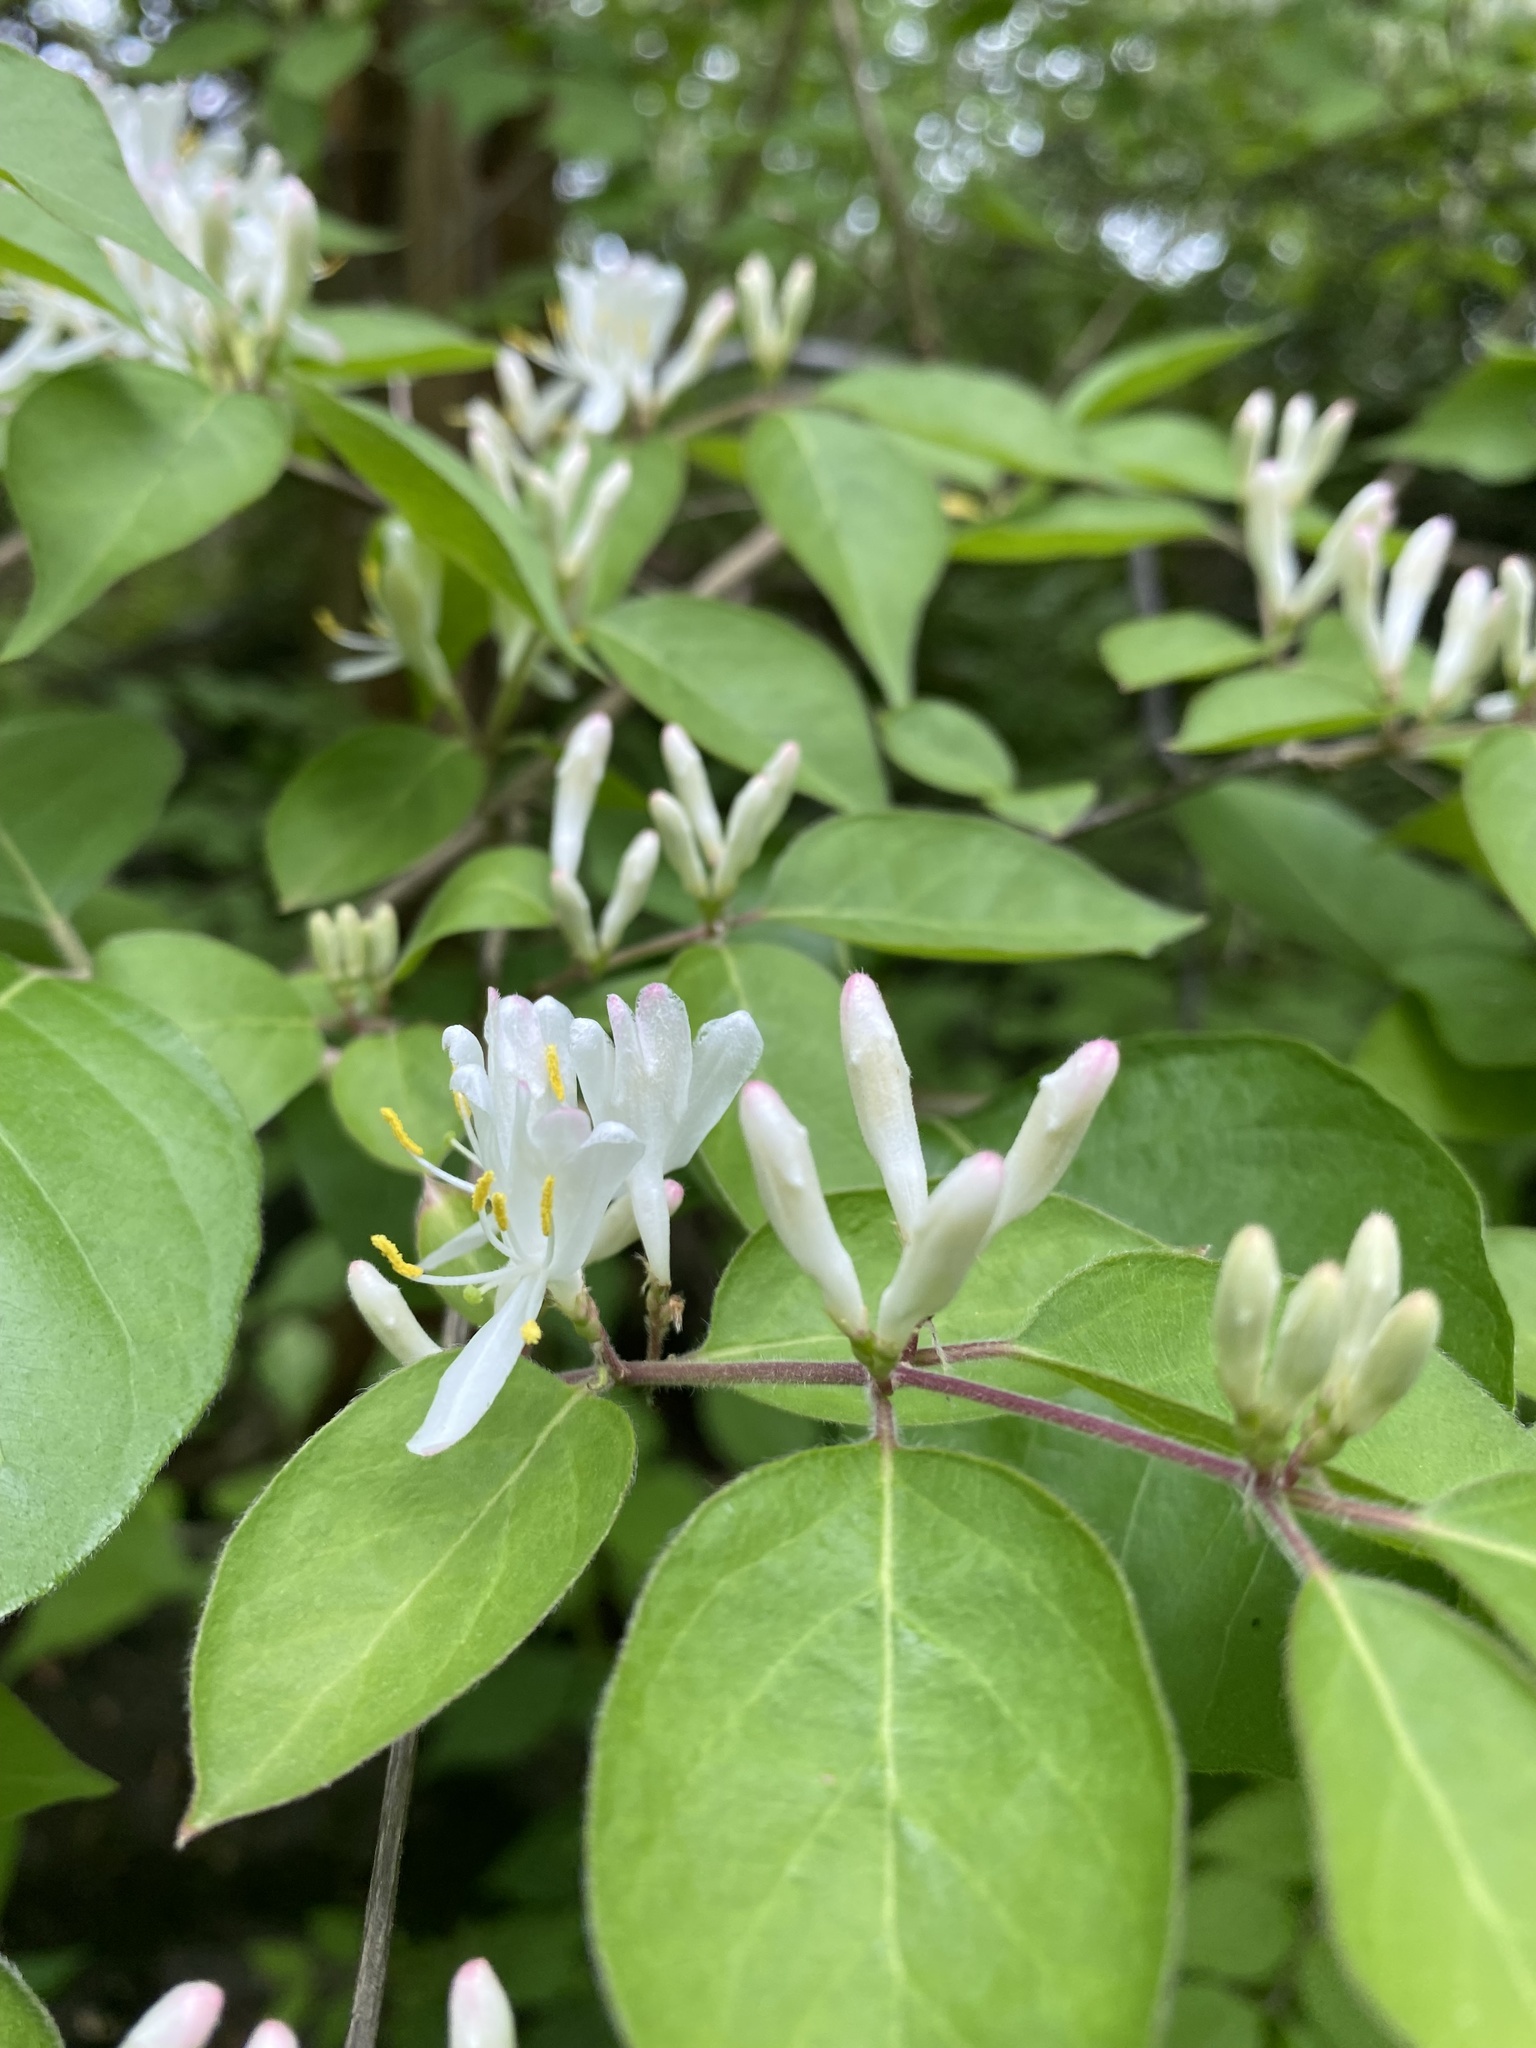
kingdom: Plantae
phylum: Tracheophyta
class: Magnoliopsida
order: Dipsacales
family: Caprifoliaceae
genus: Lonicera
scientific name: Lonicera maackii
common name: Amur honeysuckle
